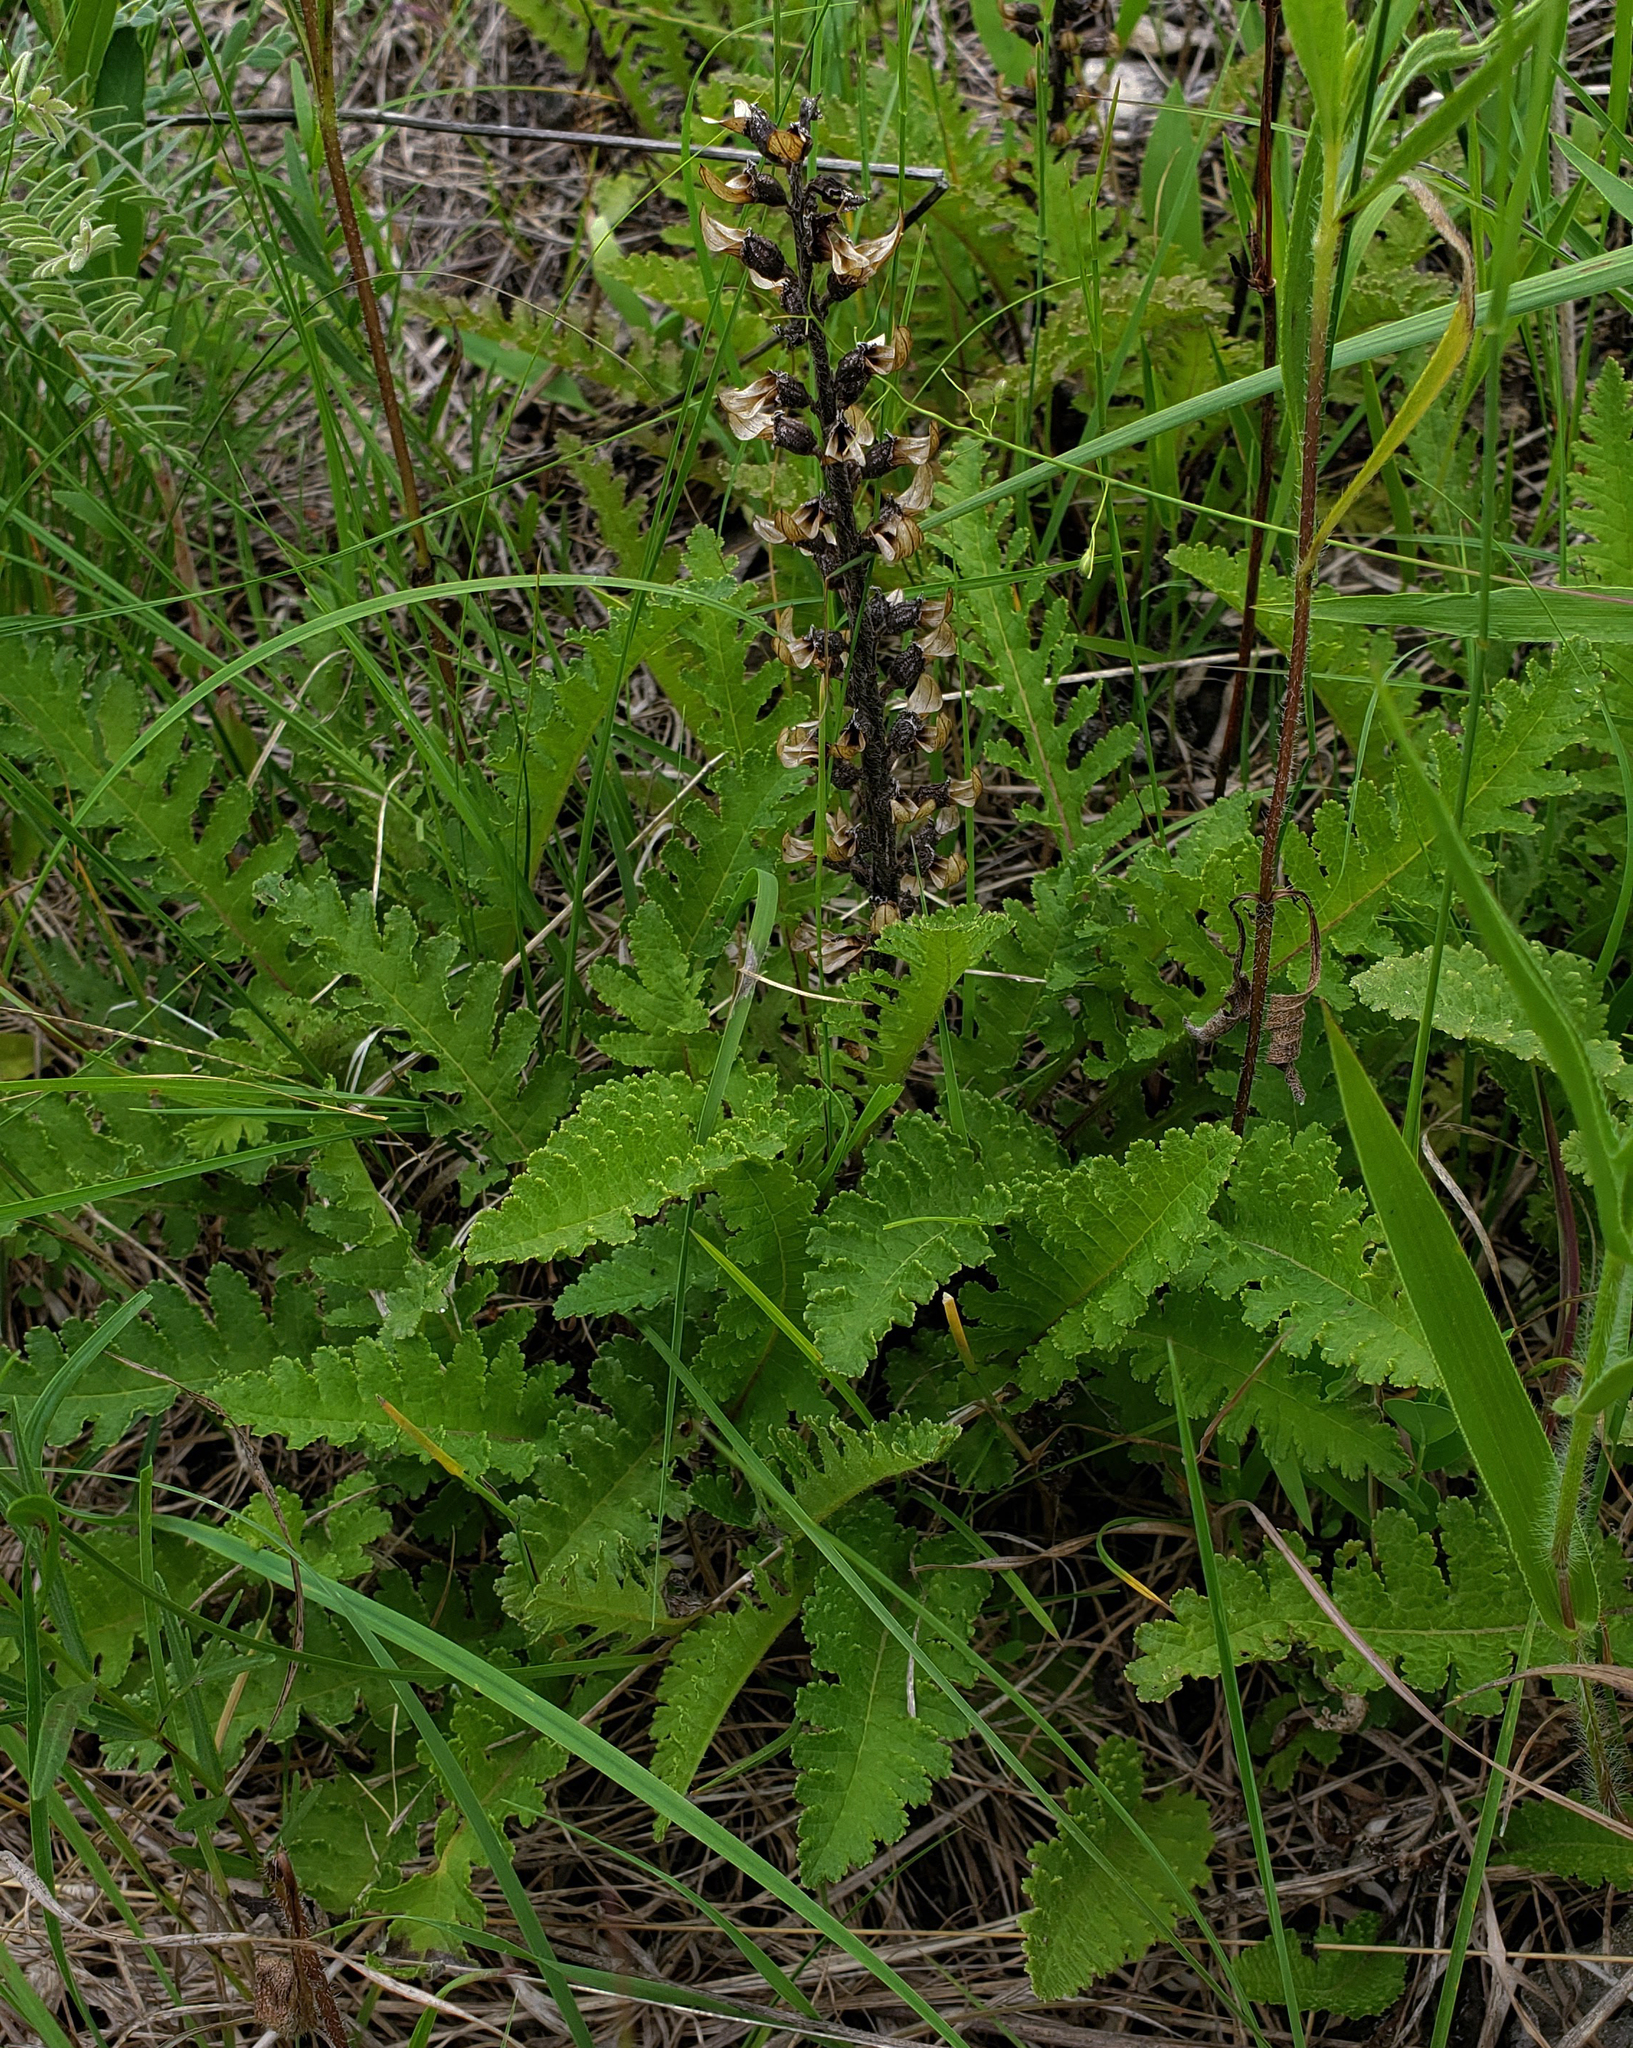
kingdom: Plantae
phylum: Tracheophyta
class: Magnoliopsida
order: Lamiales
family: Orobanchaceae
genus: Pedicularis
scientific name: Pedicularis canadensis
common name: Early lousewort
